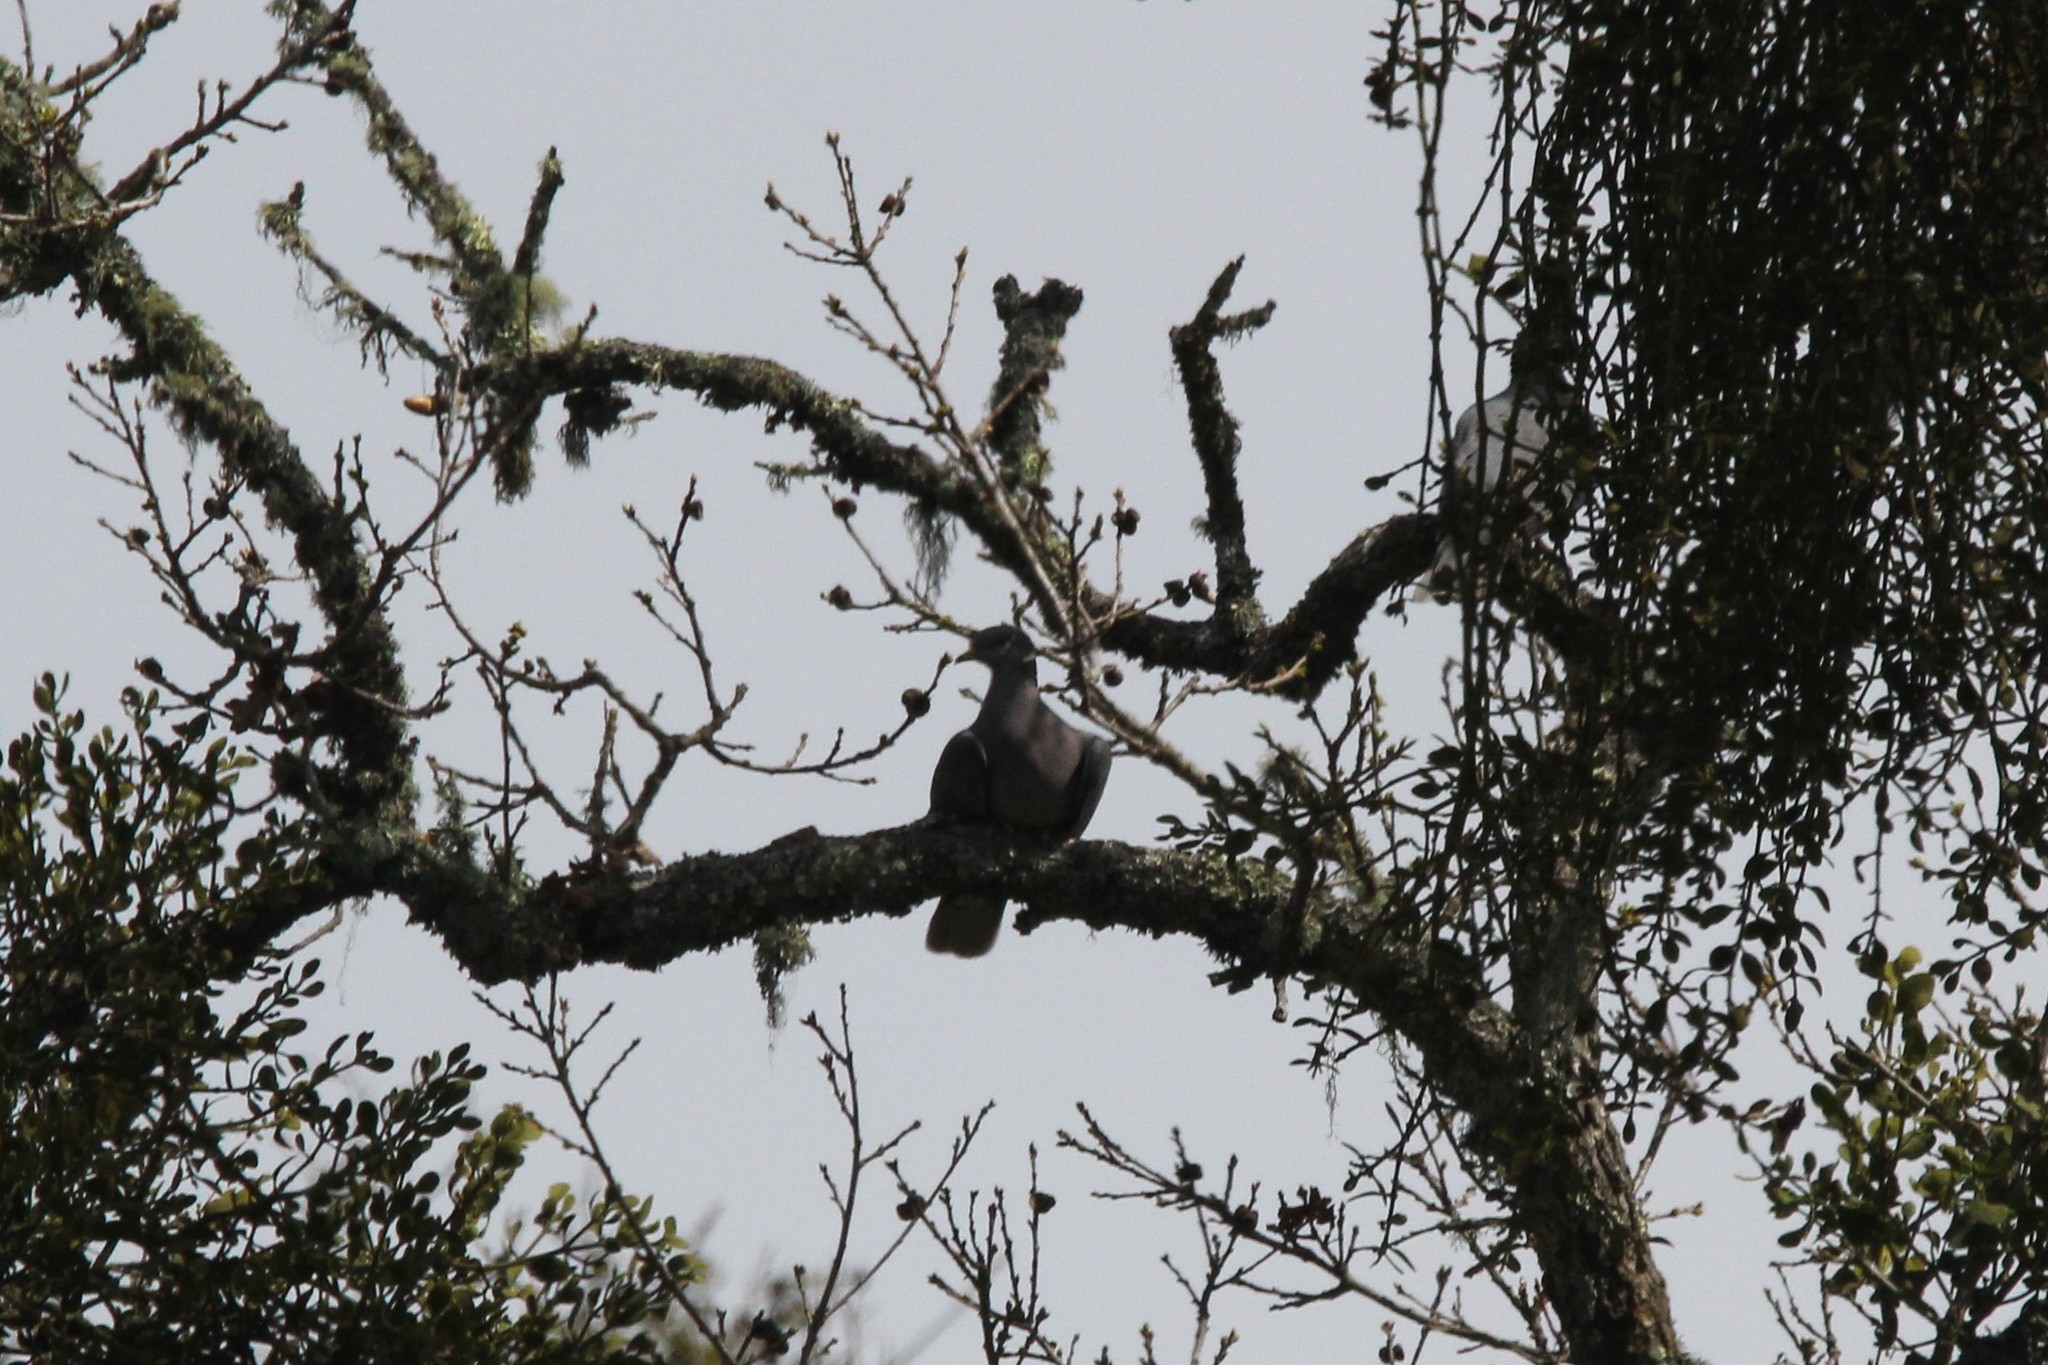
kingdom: Animalia
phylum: Chordata
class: Aves
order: Columbiformes
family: Columbidae
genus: Patagioenas
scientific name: Patagioenas fasciata
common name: Band-tailed pigeon
